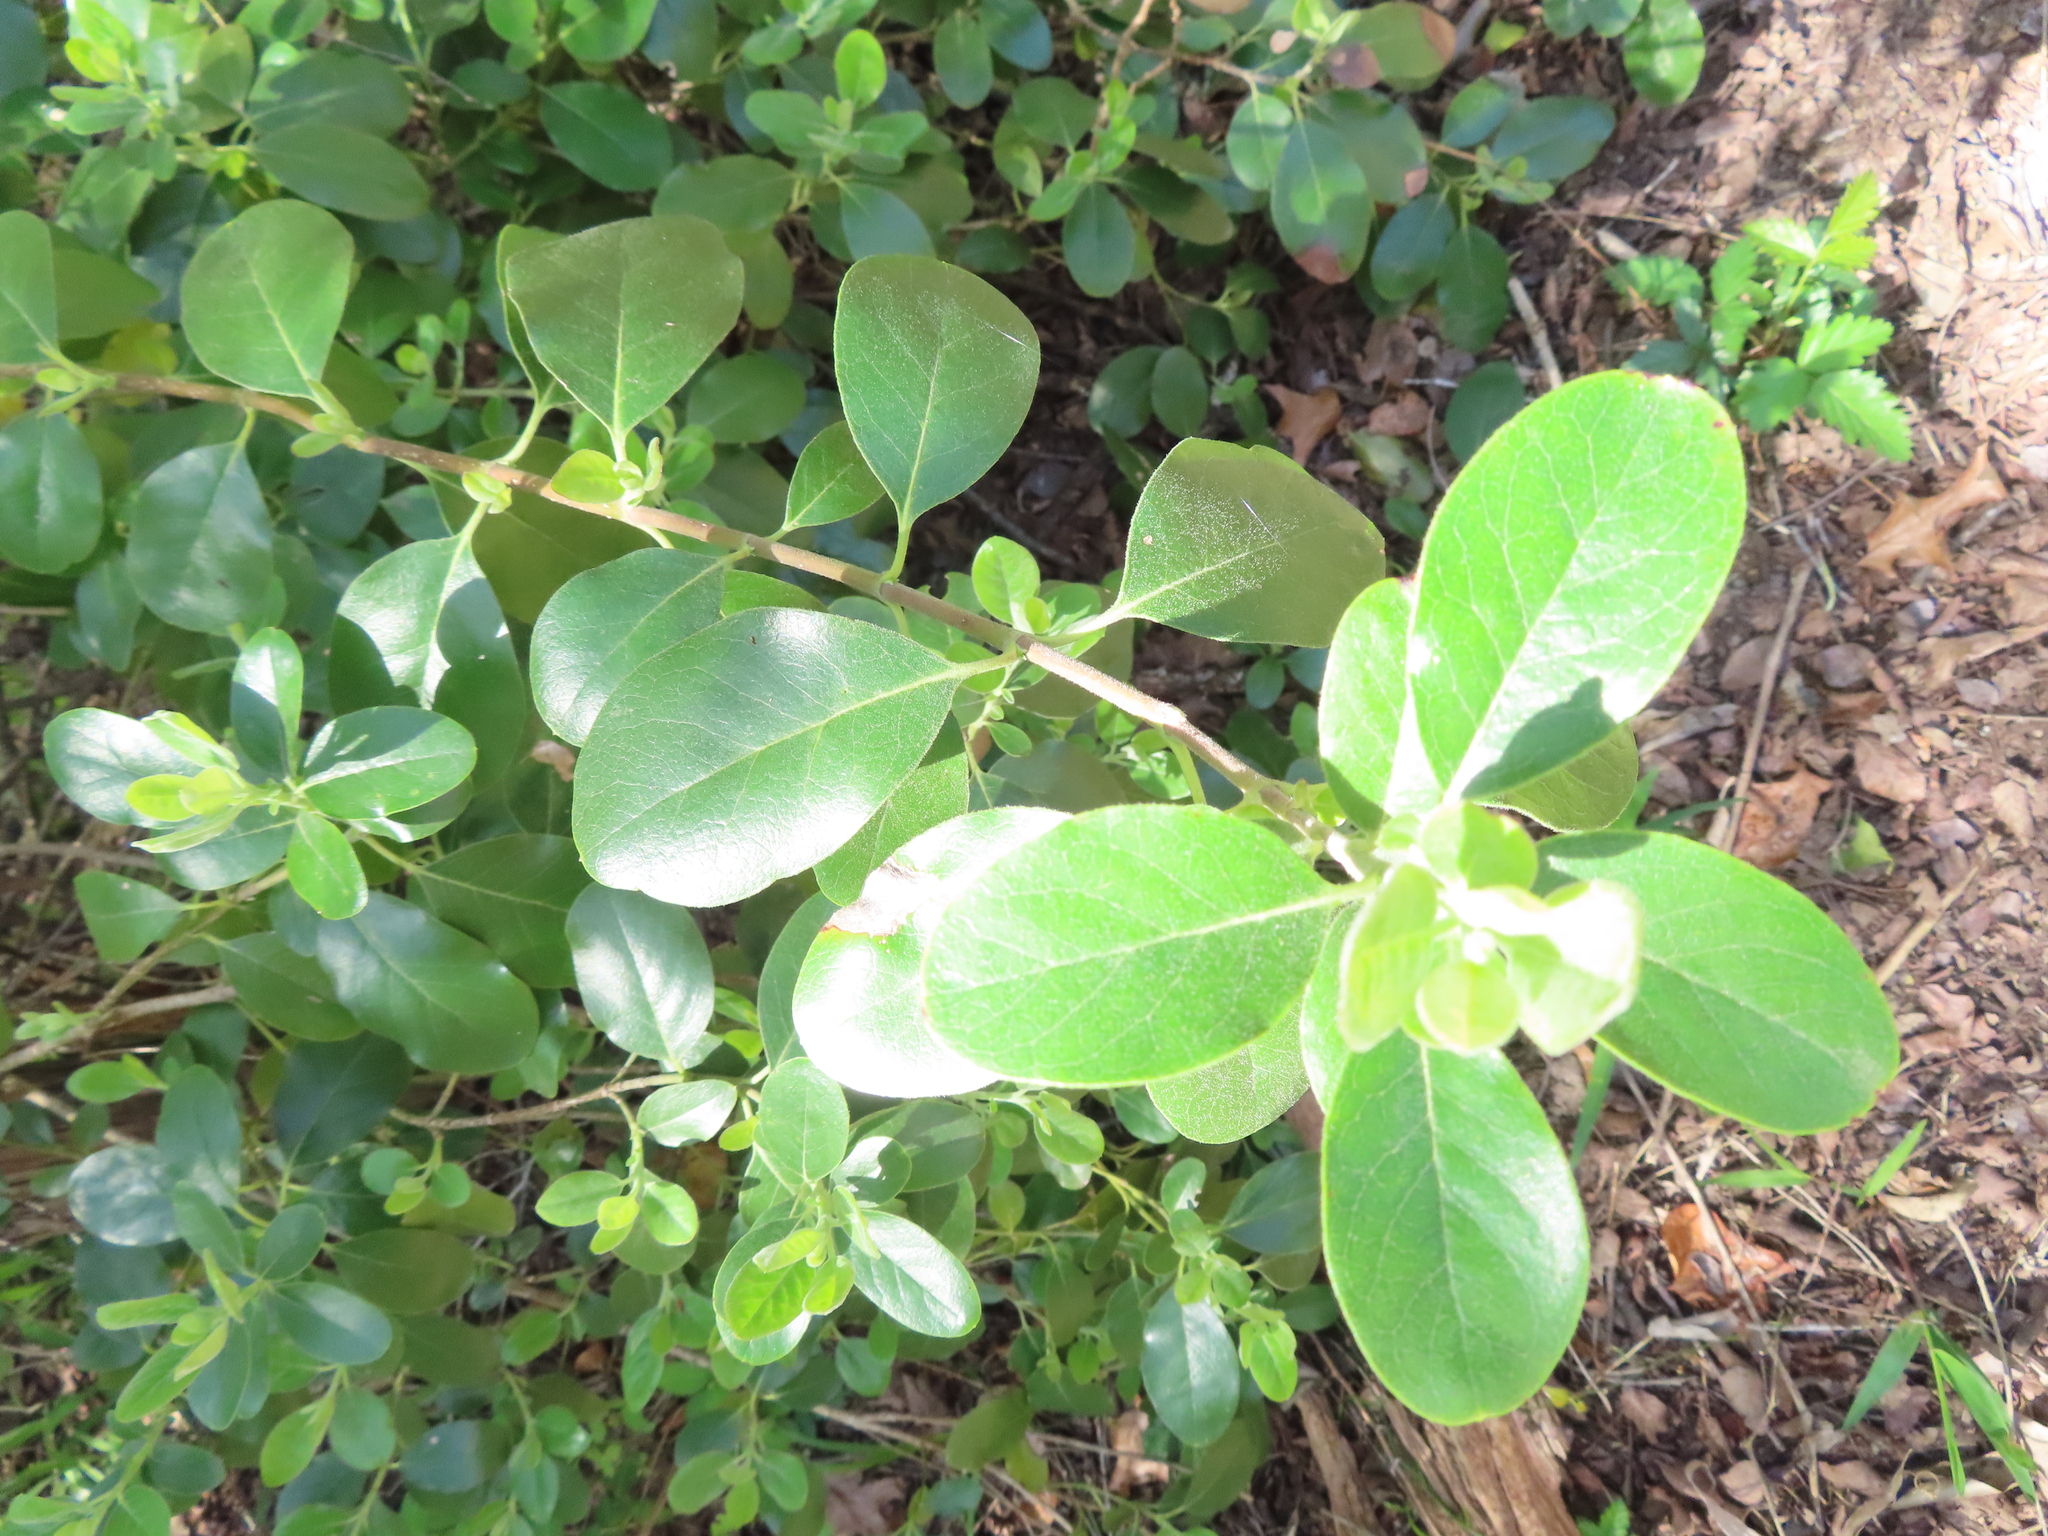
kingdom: Plantae
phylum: Tracheophyta
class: Magnoliopsida
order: Garryales
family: Garryaceae
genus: Garrya
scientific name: Garrya lindheimeri
